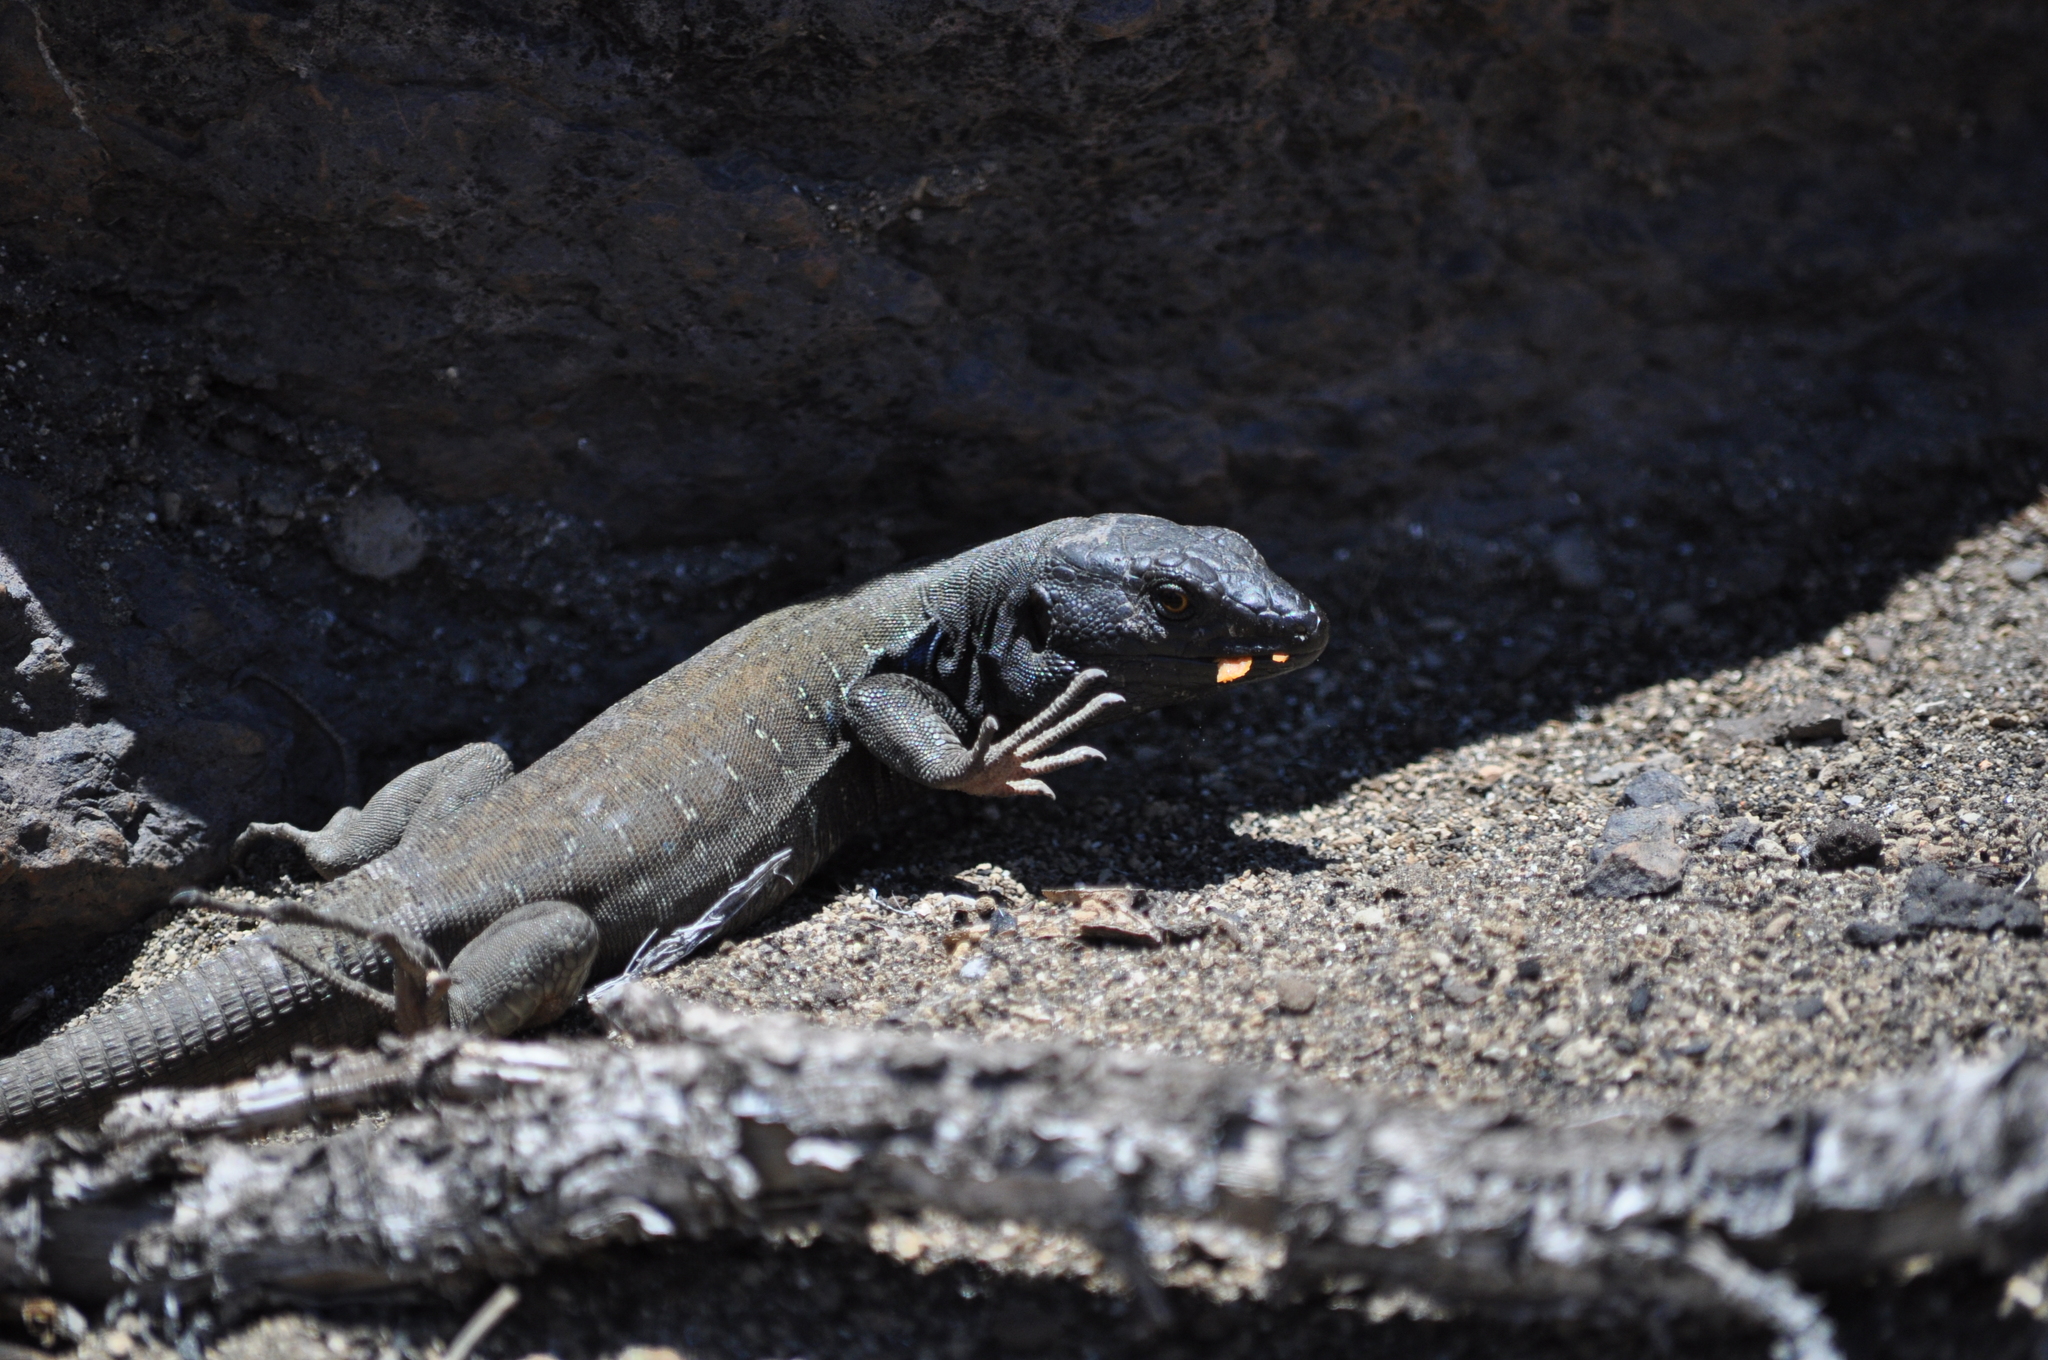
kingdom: Animalia
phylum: Chordata
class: Squamata
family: Lacertidae
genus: Gallotia
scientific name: Gallotia galloti
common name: Gallot's lizard
